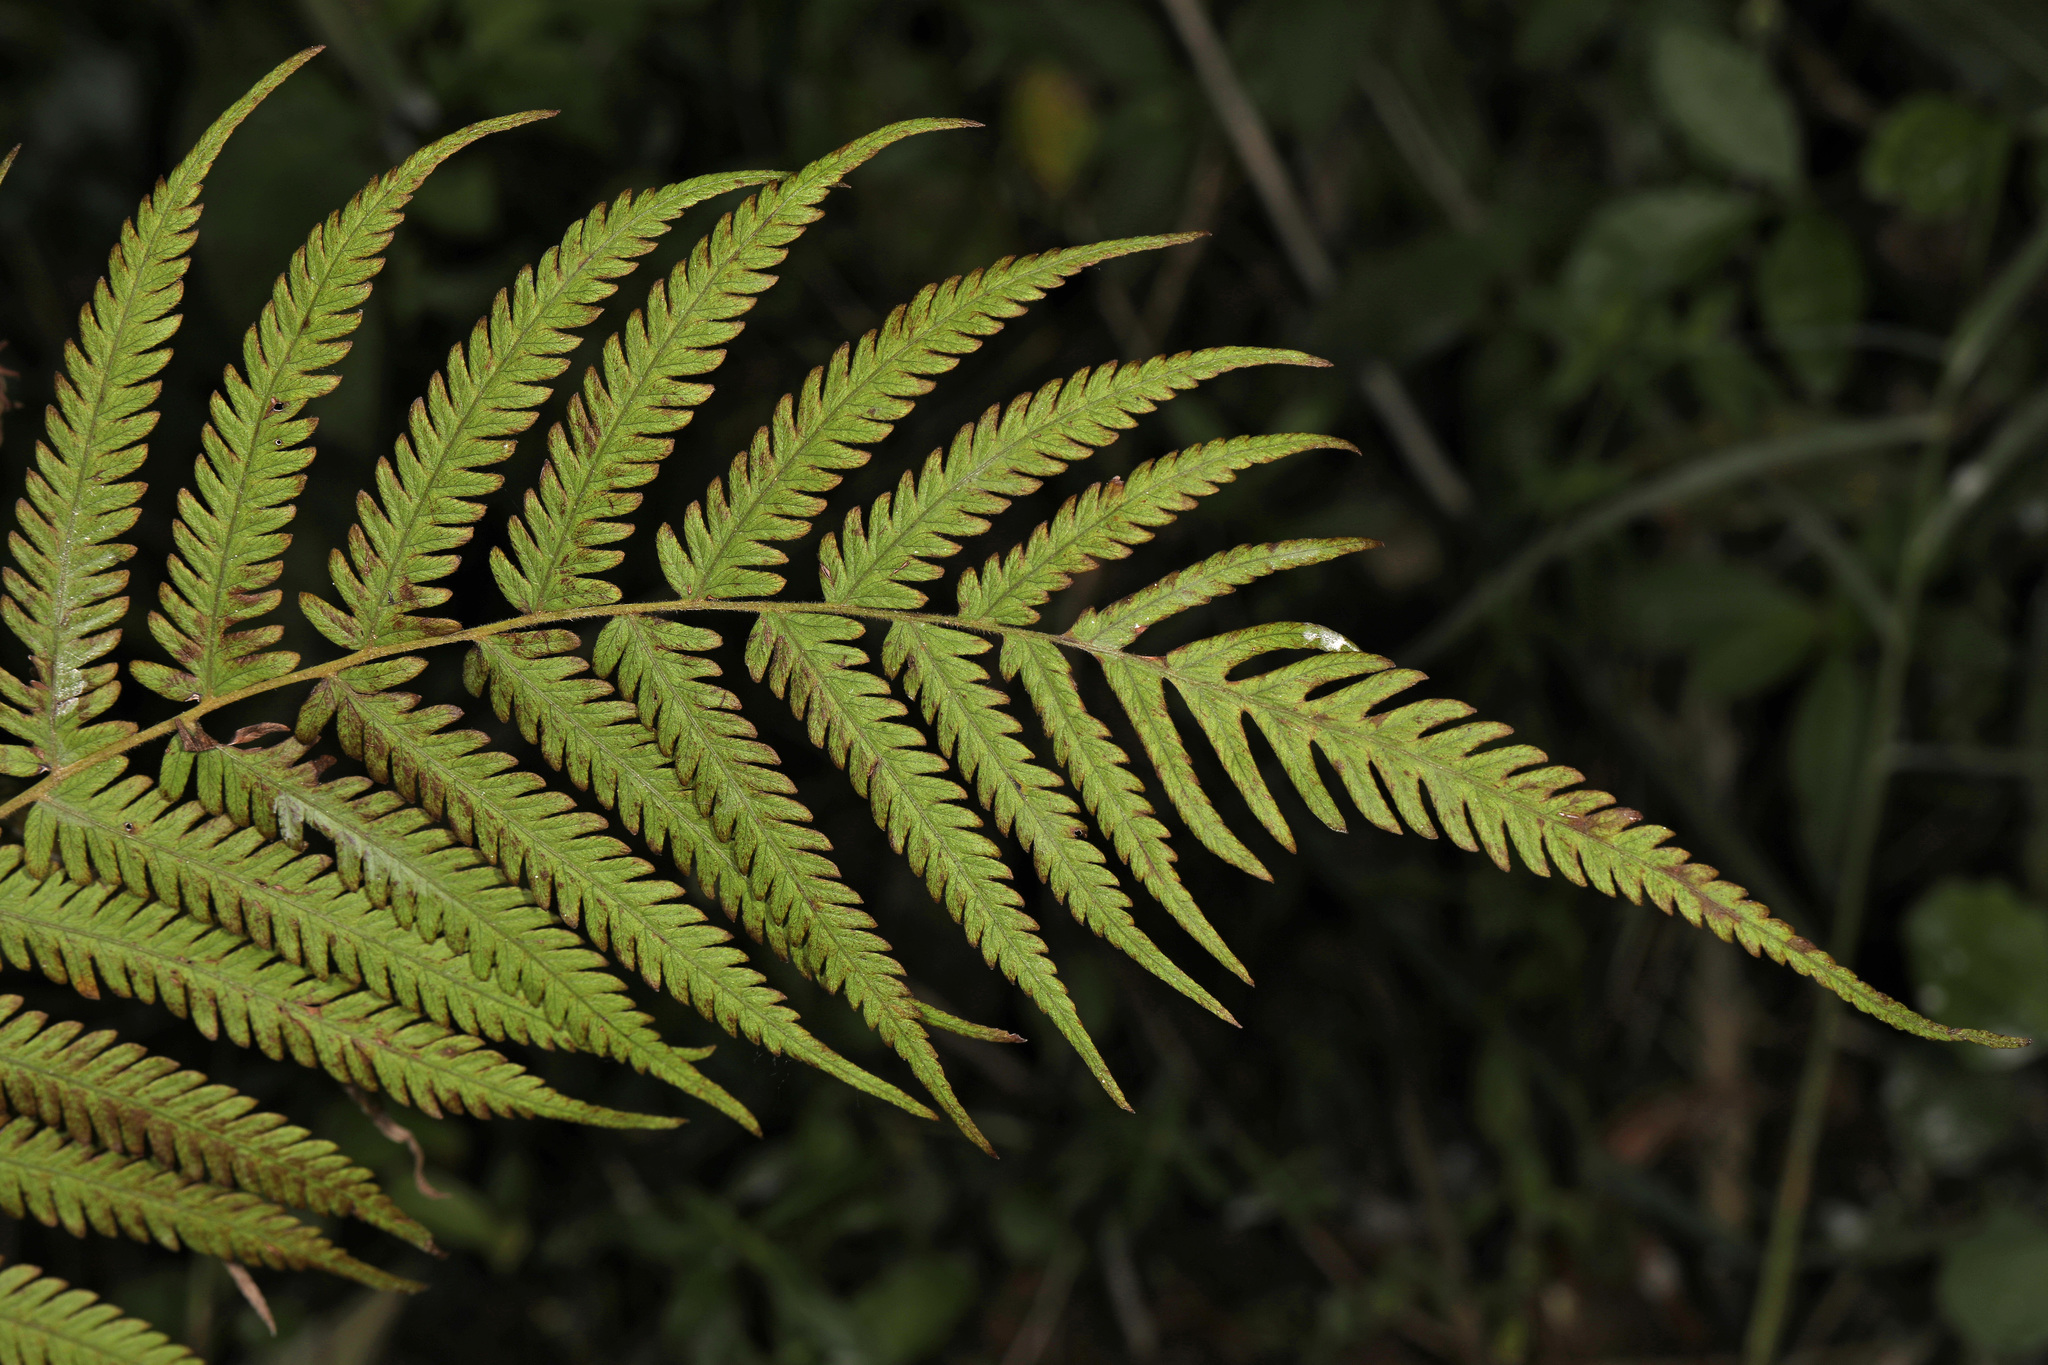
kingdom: Plantae
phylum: Tracheophyta
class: Polypodiopsida
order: Polypodiales
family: Thelypteridaceae
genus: Pelazoneuron
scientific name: Pelazoneuron kunthii
